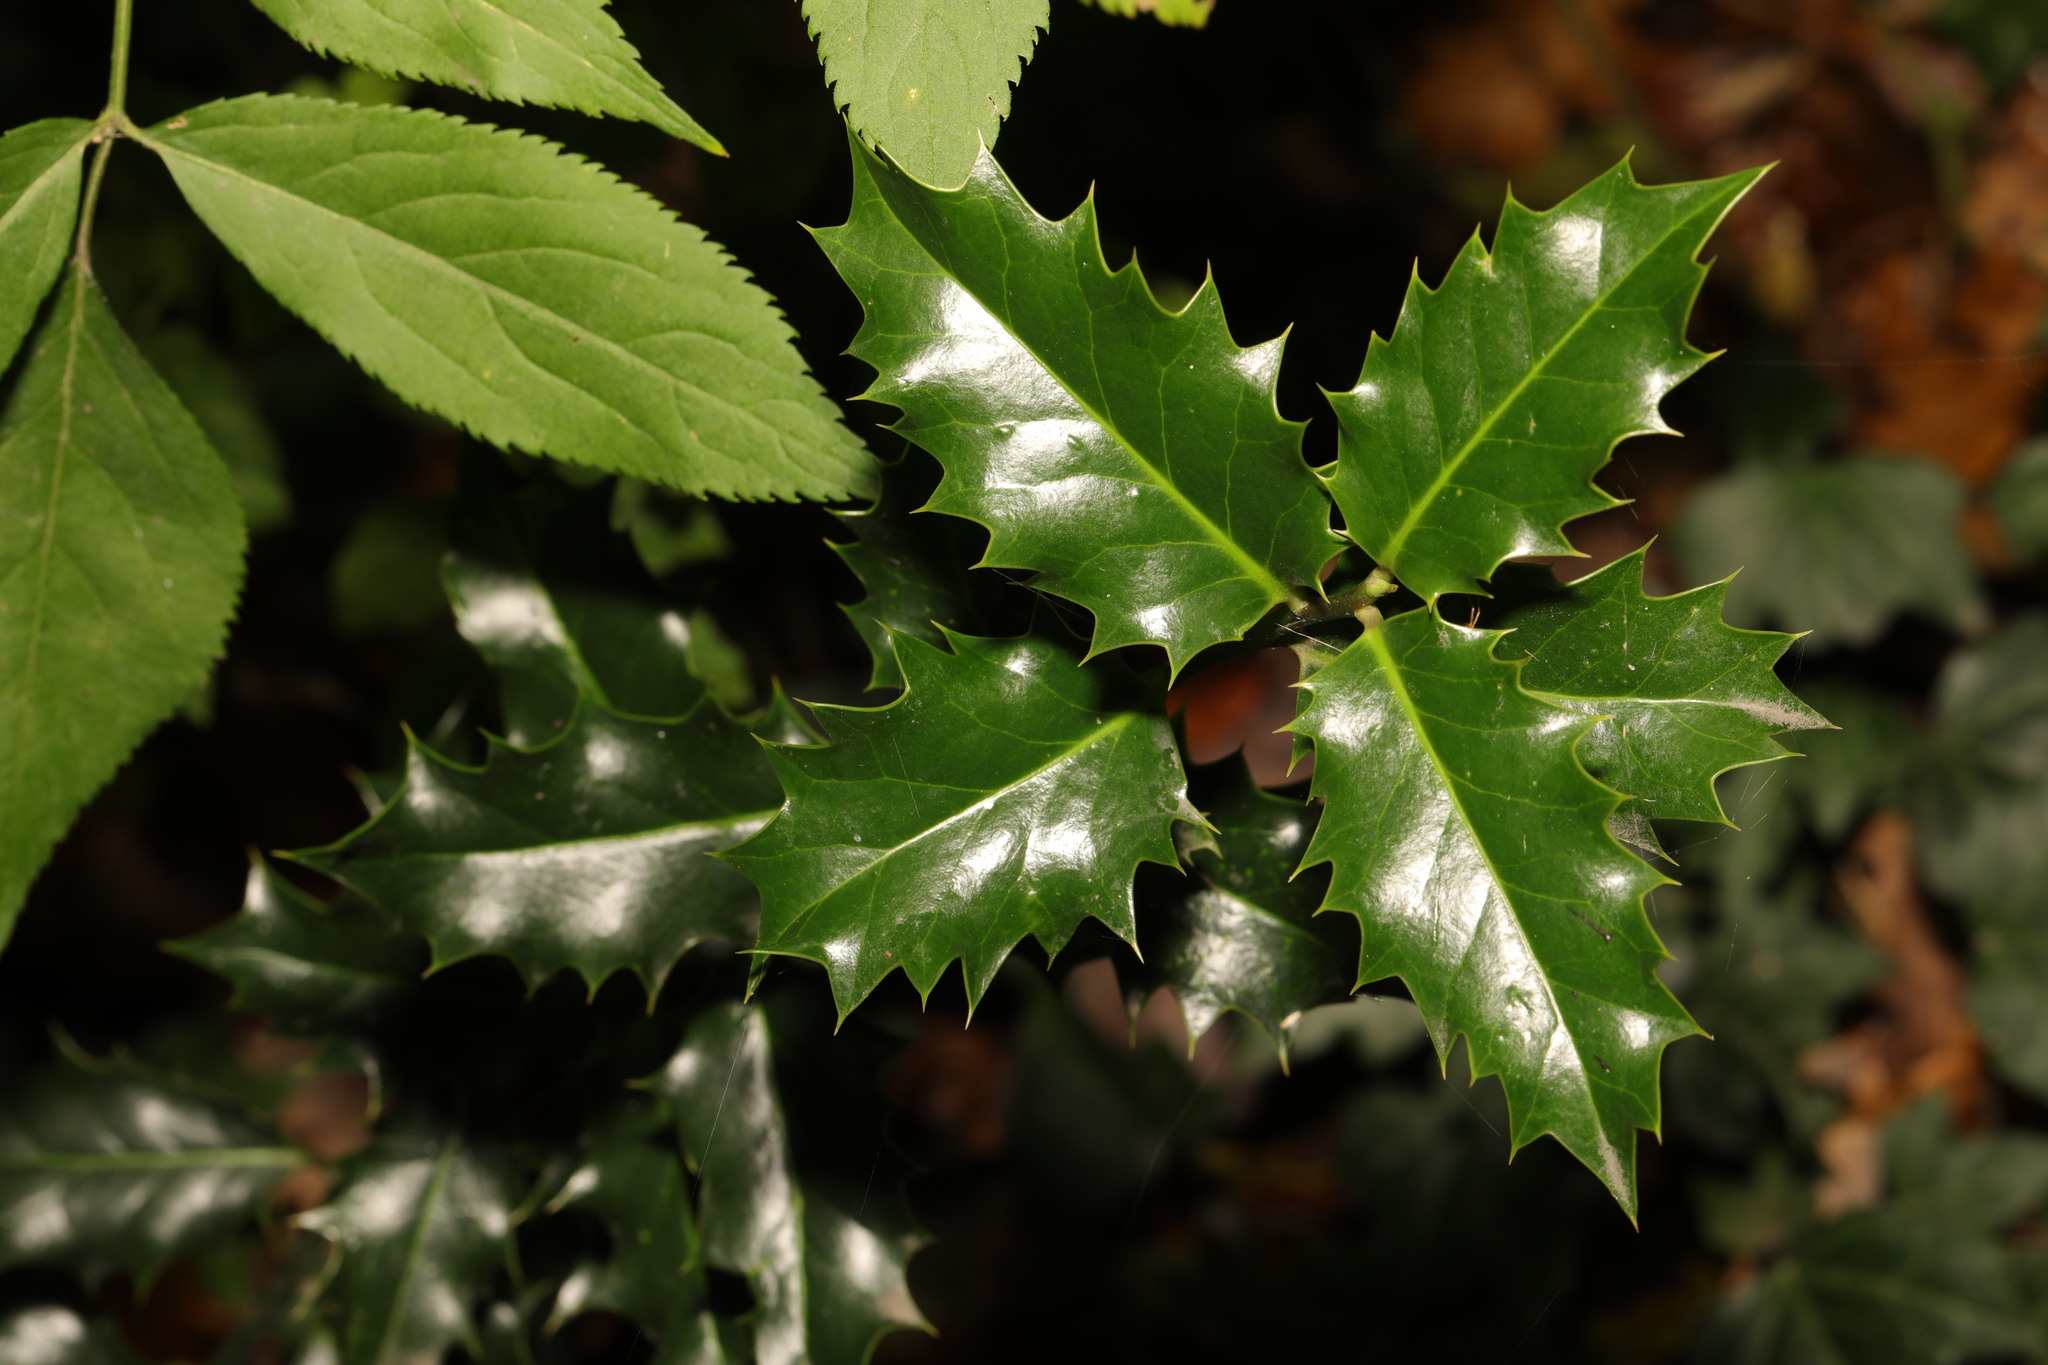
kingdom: Plantae
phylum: Tracheophyta
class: Magnoliopsida
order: Aquifoliales
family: Aquifoliaceae
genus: Ilex
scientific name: Ilex aquifolium
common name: English holly
